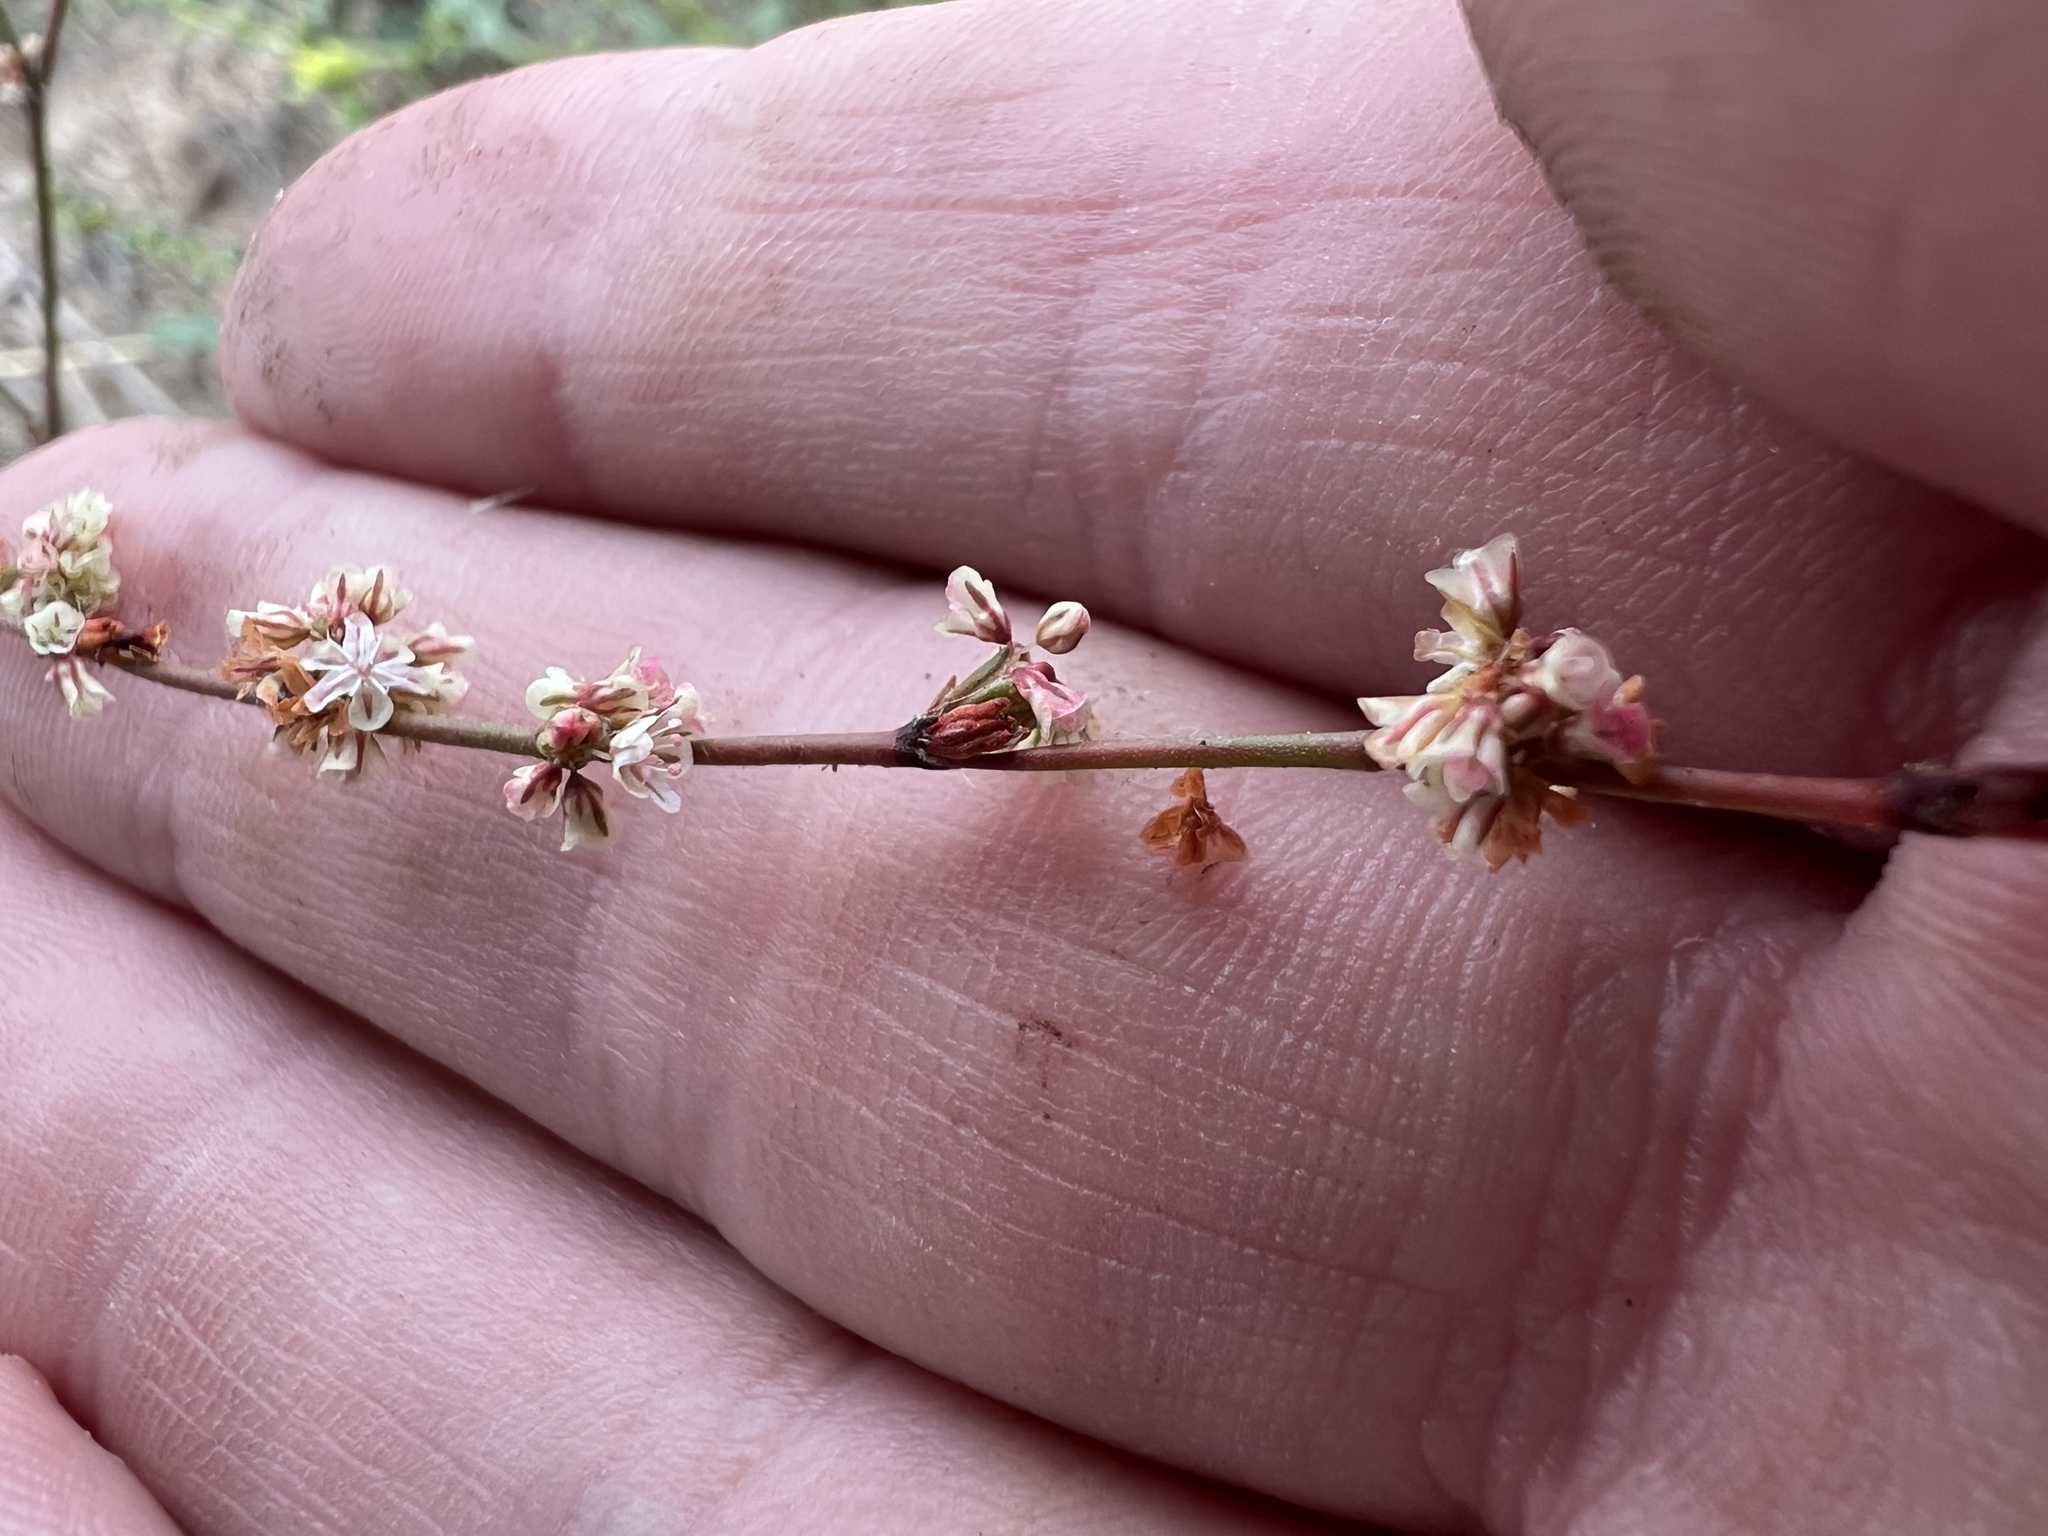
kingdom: Plantae
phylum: Tracheophyta
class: Magnoliopsida
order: Caryophyllales
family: Polygonaceae
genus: Eriogonum
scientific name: Eriogonum gracile
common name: Slender woolly buckwheat
